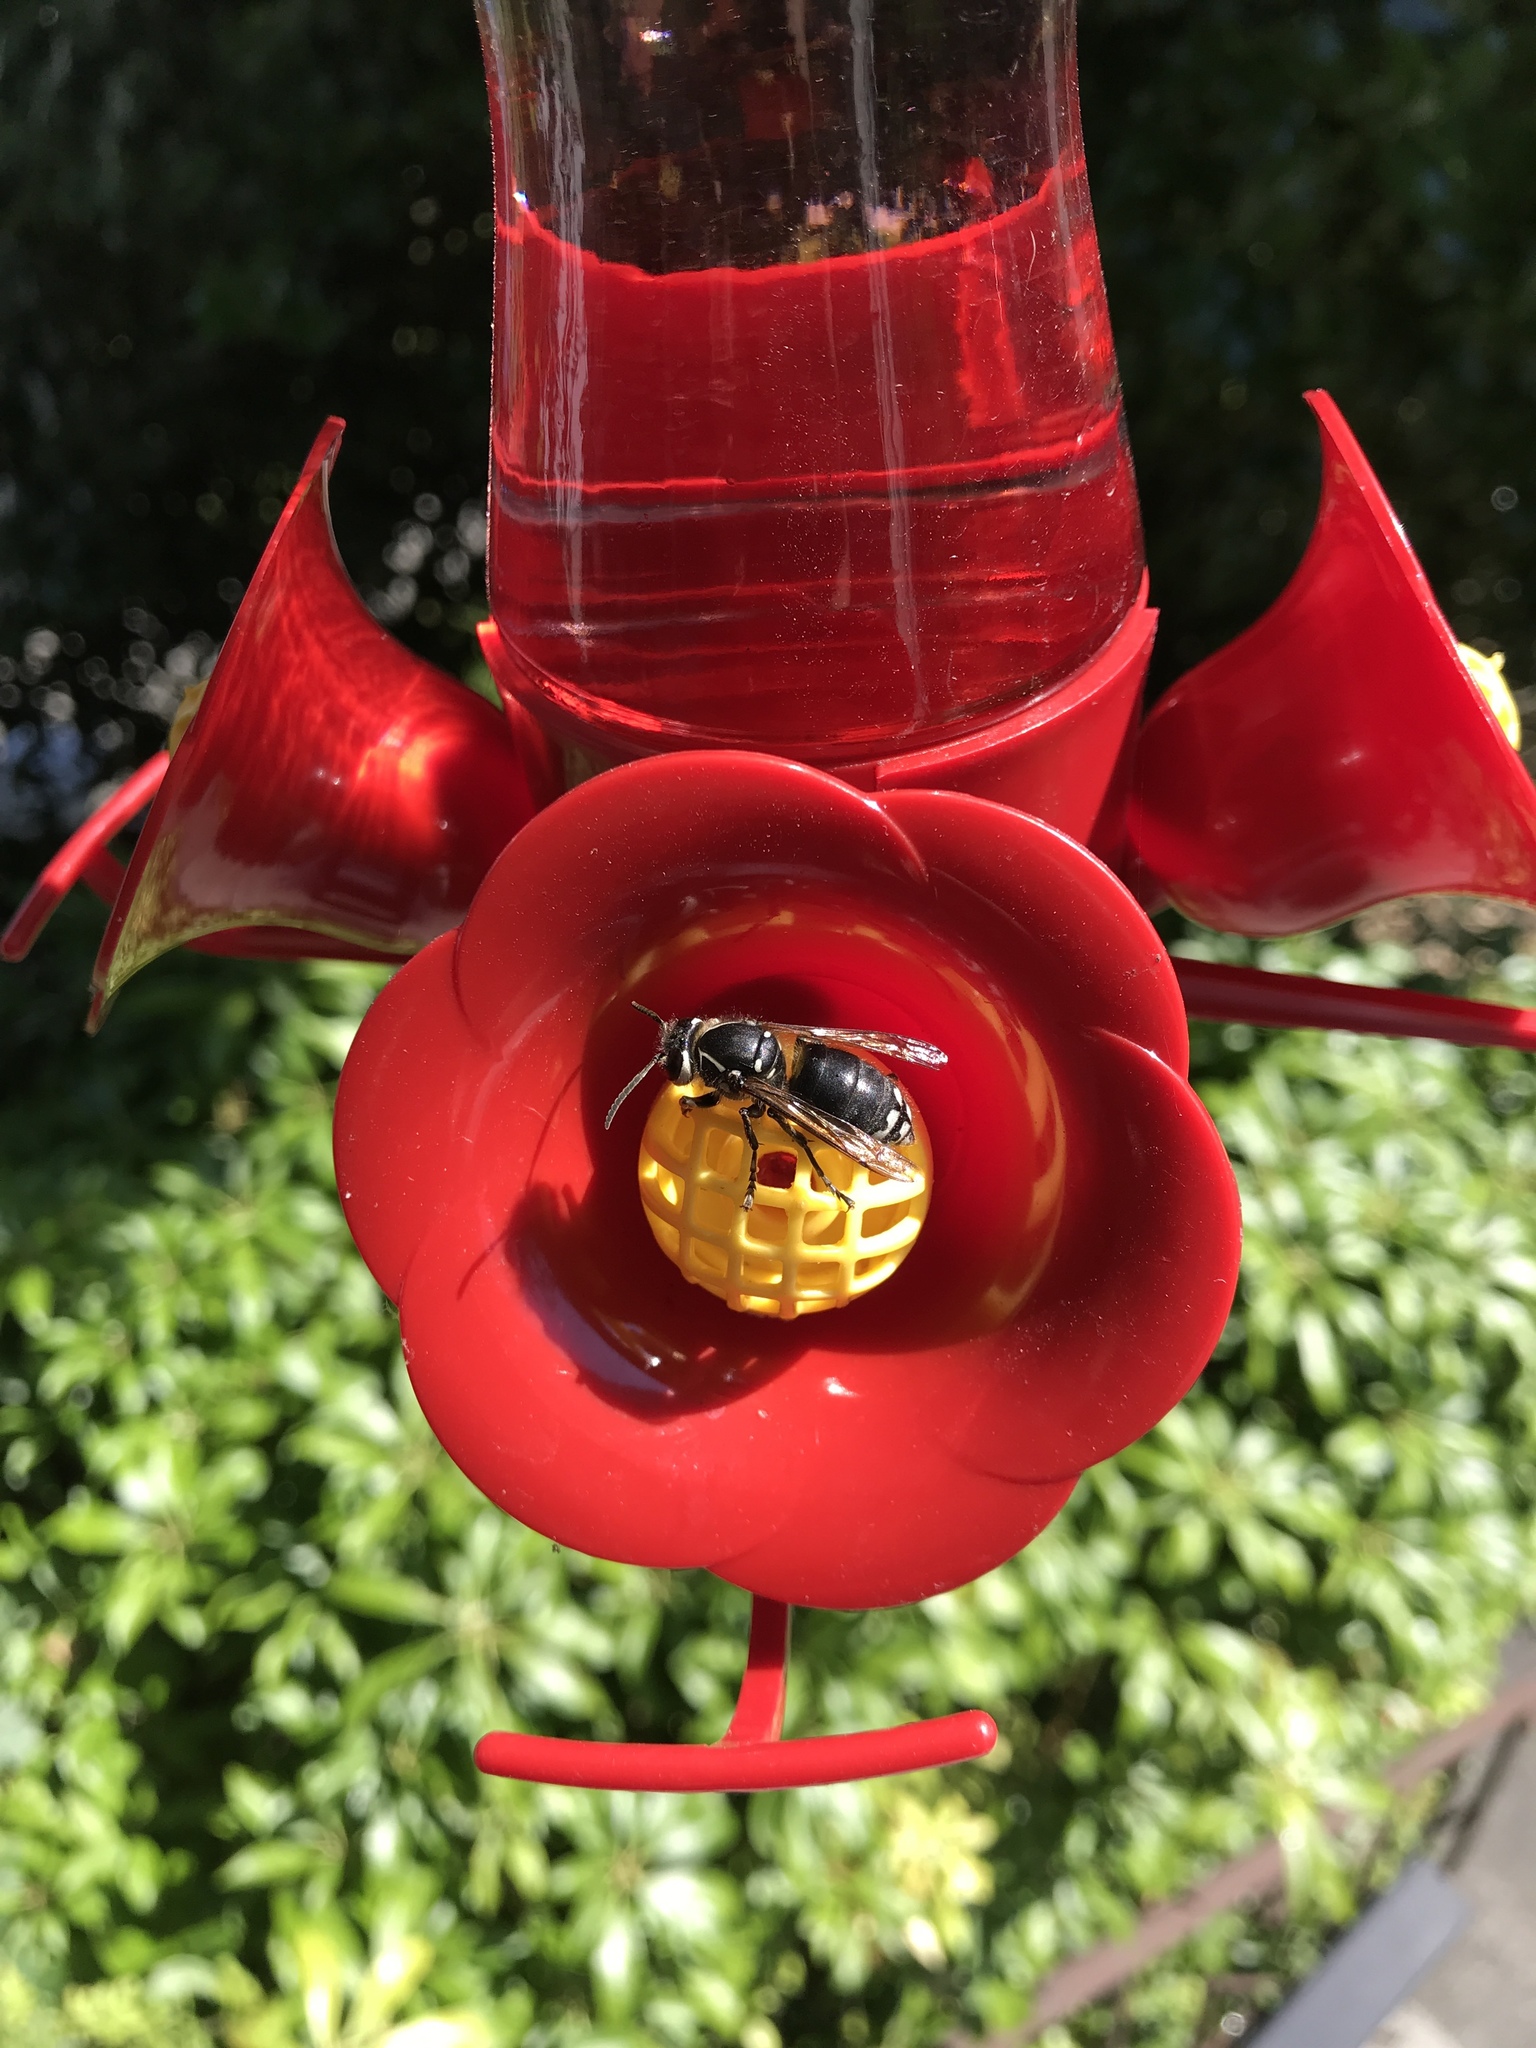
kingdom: Animalia
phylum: Arthropoda
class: Insecta
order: Hymenoptera
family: Vespidae
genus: Dolichovespula
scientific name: Dolichovespula maculata
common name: Bald-faced hornet
